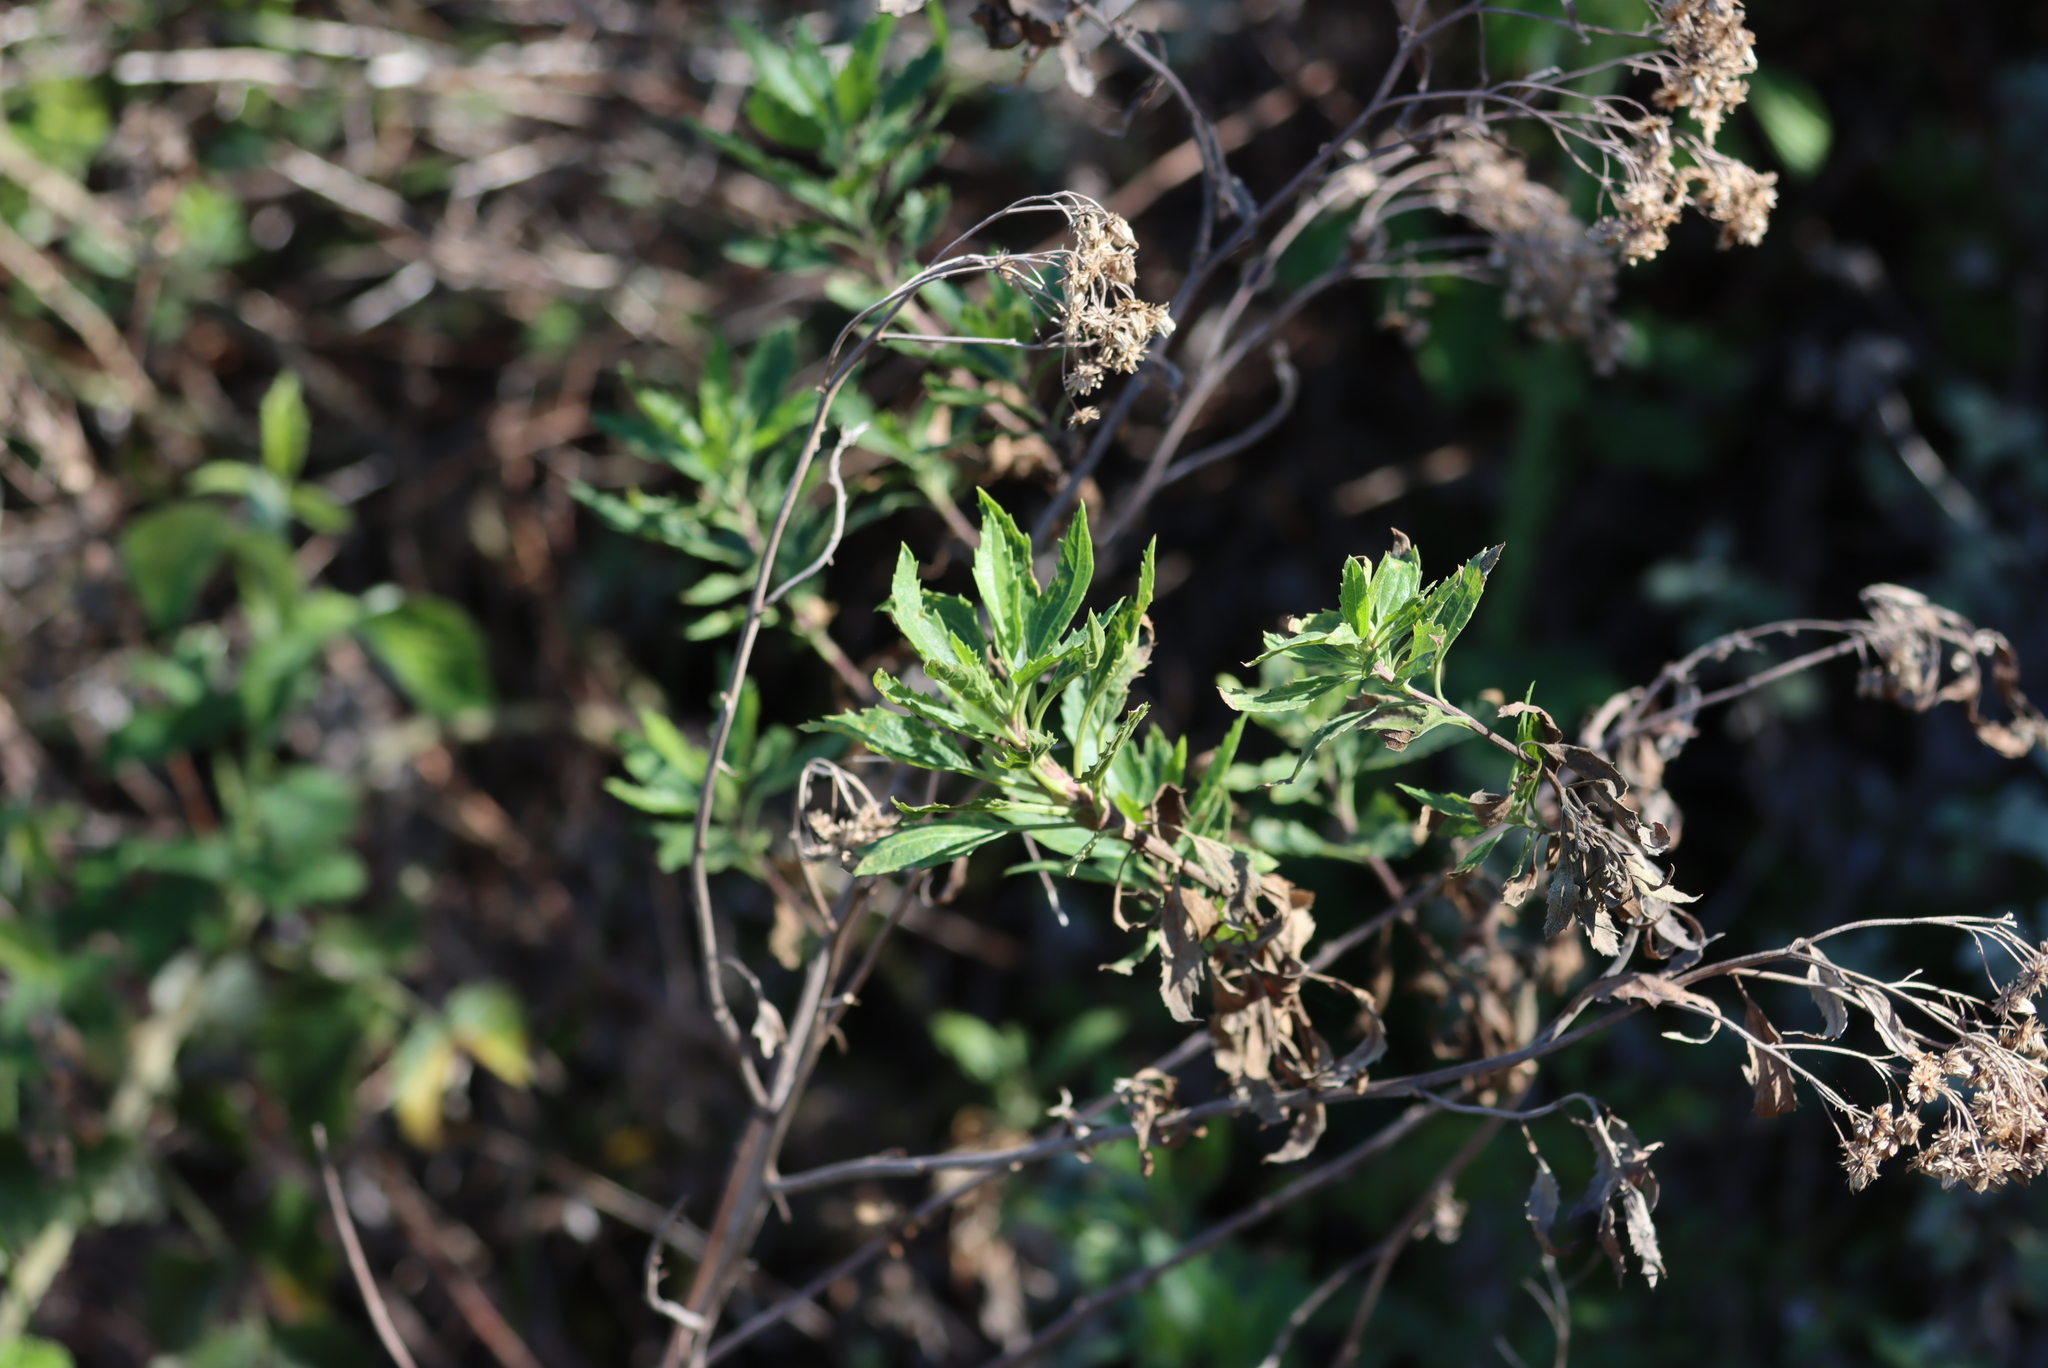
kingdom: Plantae
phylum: Tracheophyta
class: Magnoliopsida
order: Asterales
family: Asteraceae
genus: Nidorella
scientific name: Nidorella ivifolia
